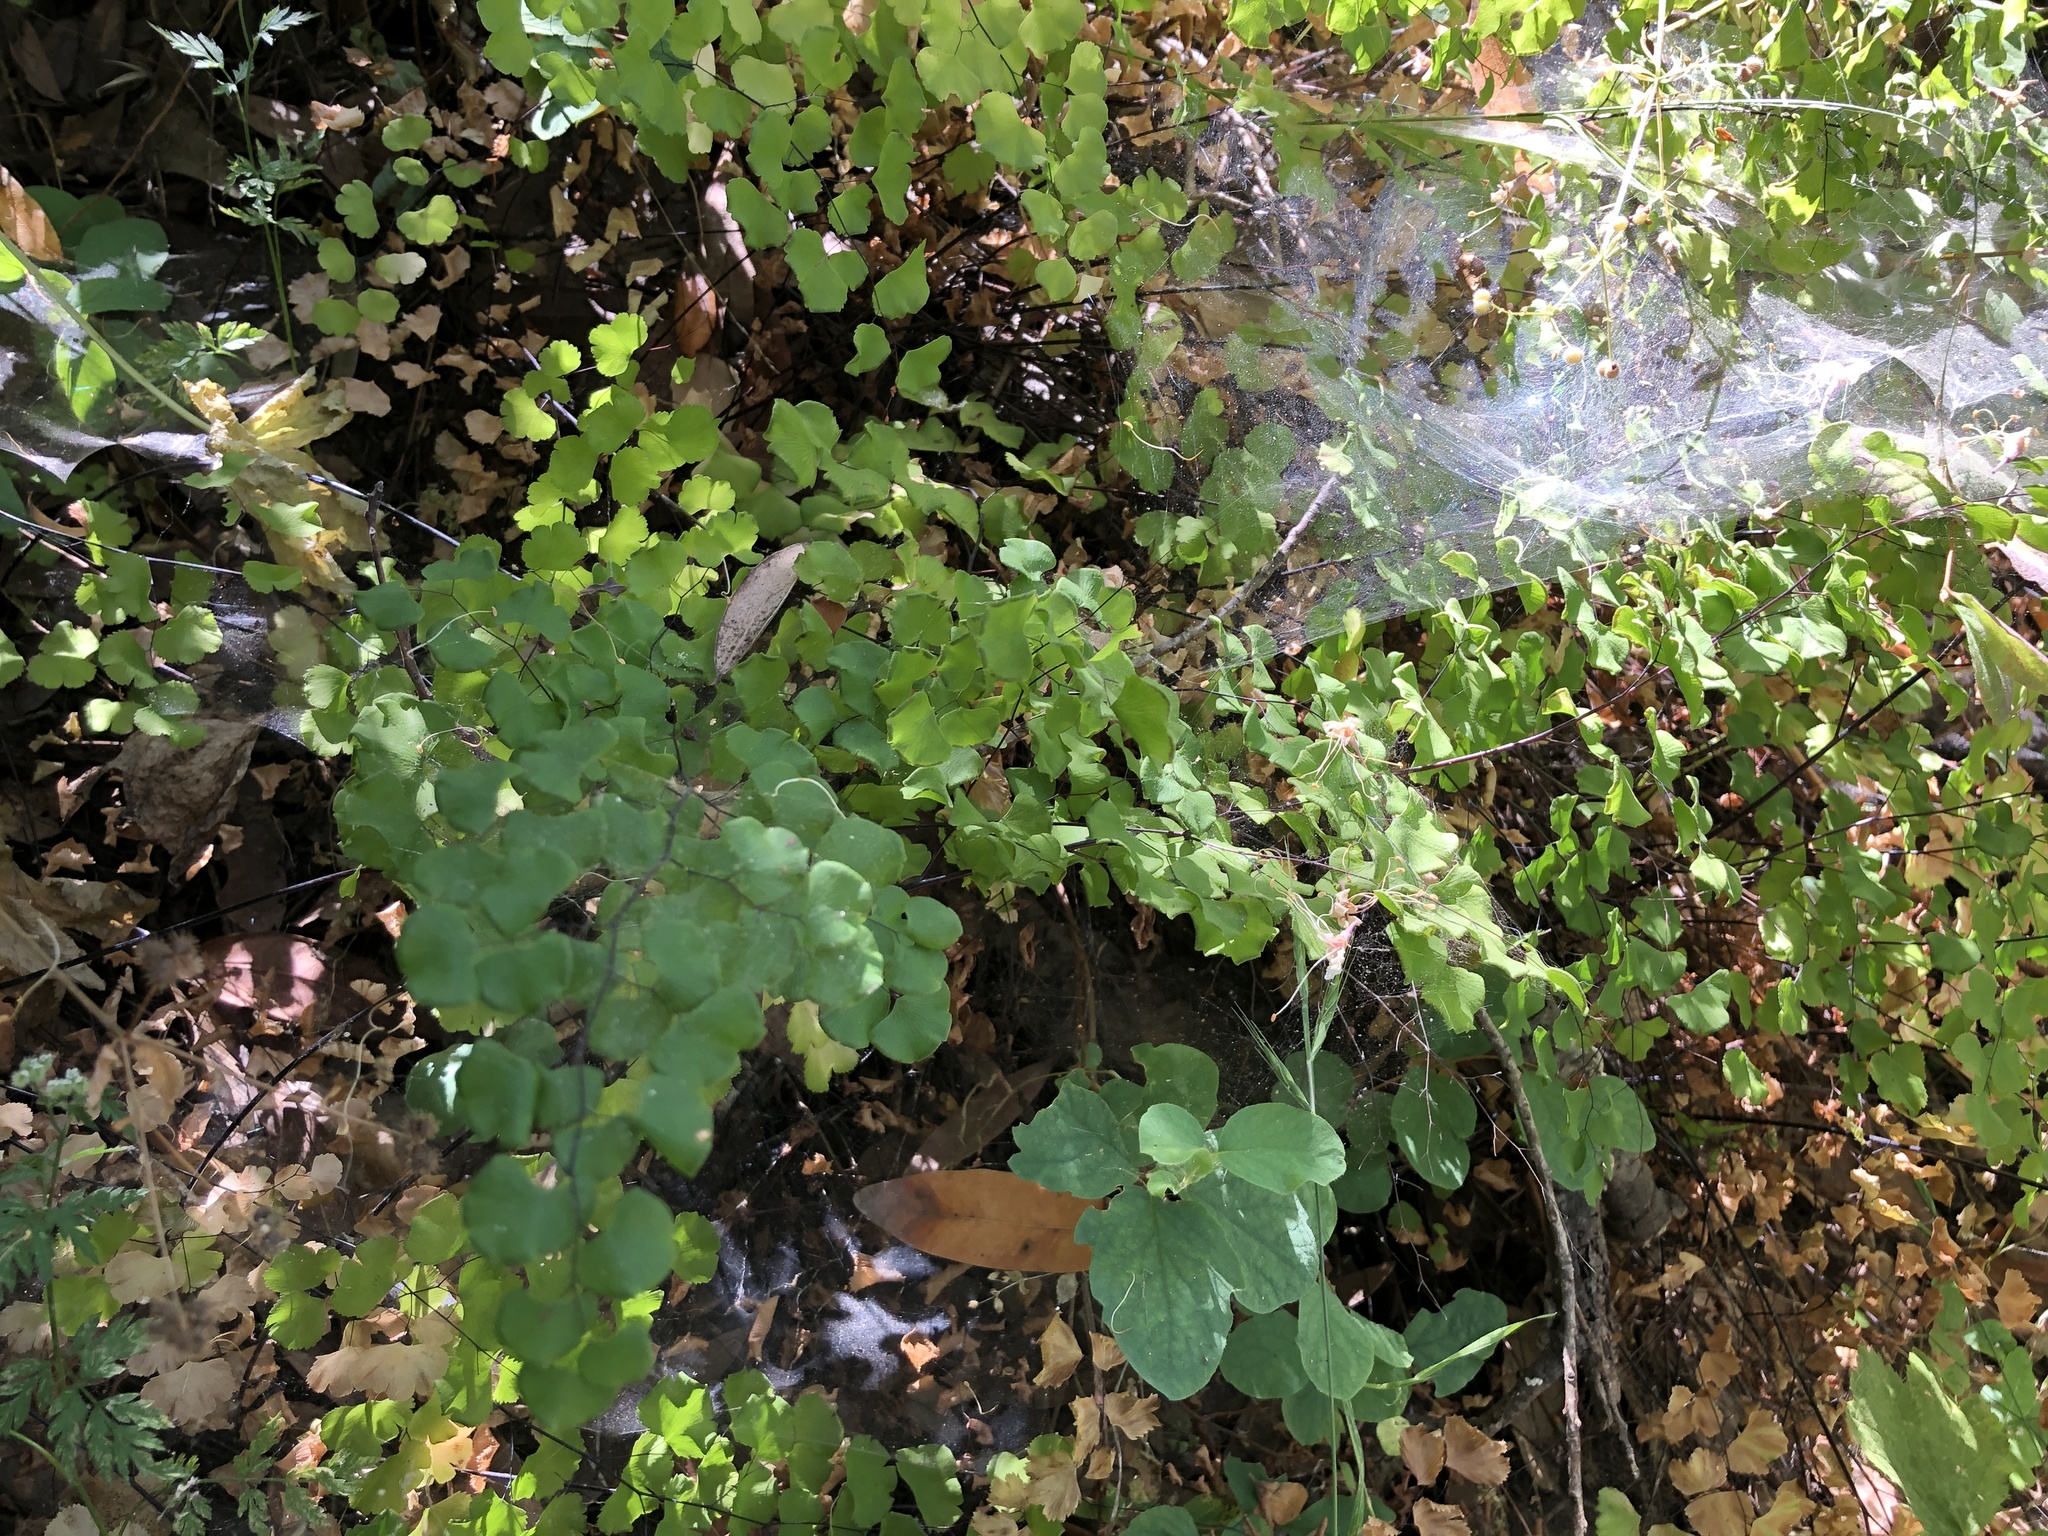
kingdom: Plantae
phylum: Tracheophyta
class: Polypodiopsida
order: Polypodiales
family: Pteridaceae
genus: Adiantum
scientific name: Adiantum jordanii
